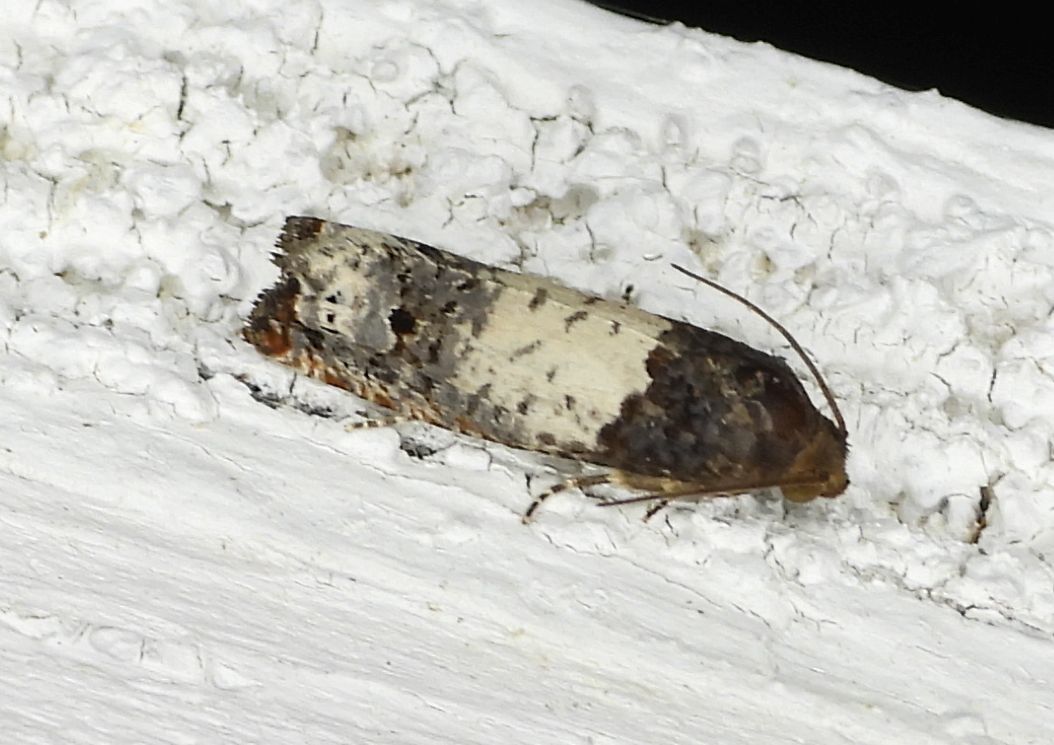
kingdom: Animalia
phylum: Arthropoda
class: Insecta
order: Lepidoptera
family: Tortricidae
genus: Epiblema
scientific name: Epiblema scudderiana
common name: Goldenrod gall moth
